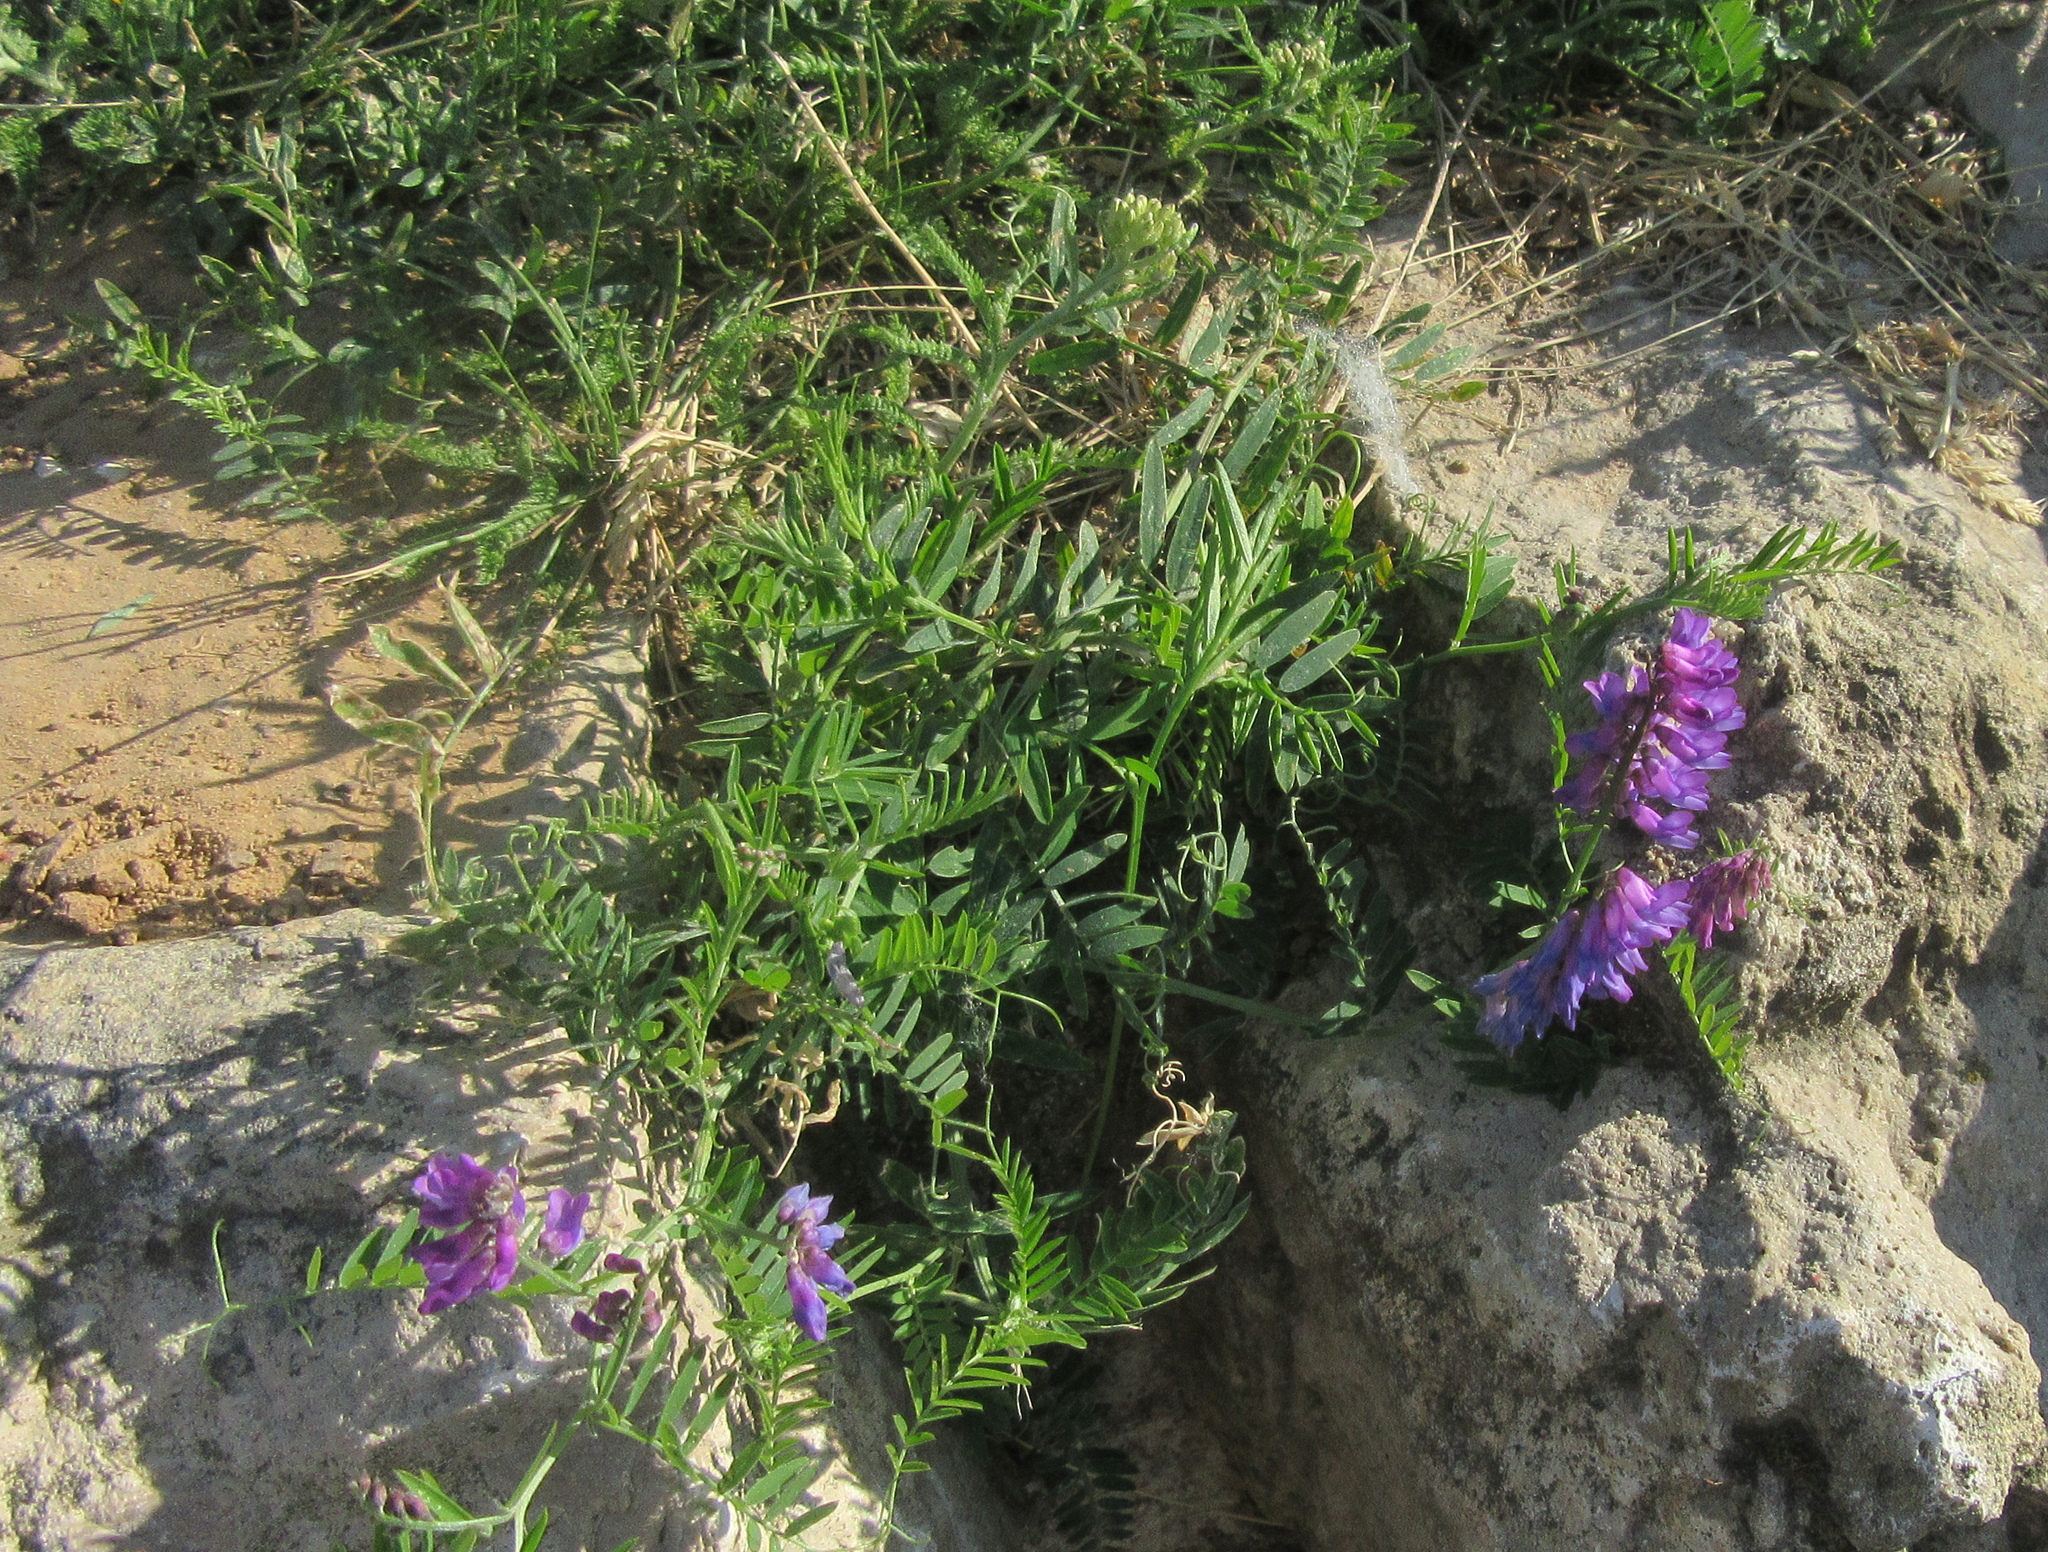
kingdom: Plantae
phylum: Tracheophyta
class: Magnoliopsida
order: Fabales
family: Fabaceae
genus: Vicia
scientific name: Vicia cracca
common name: Bird vetch
